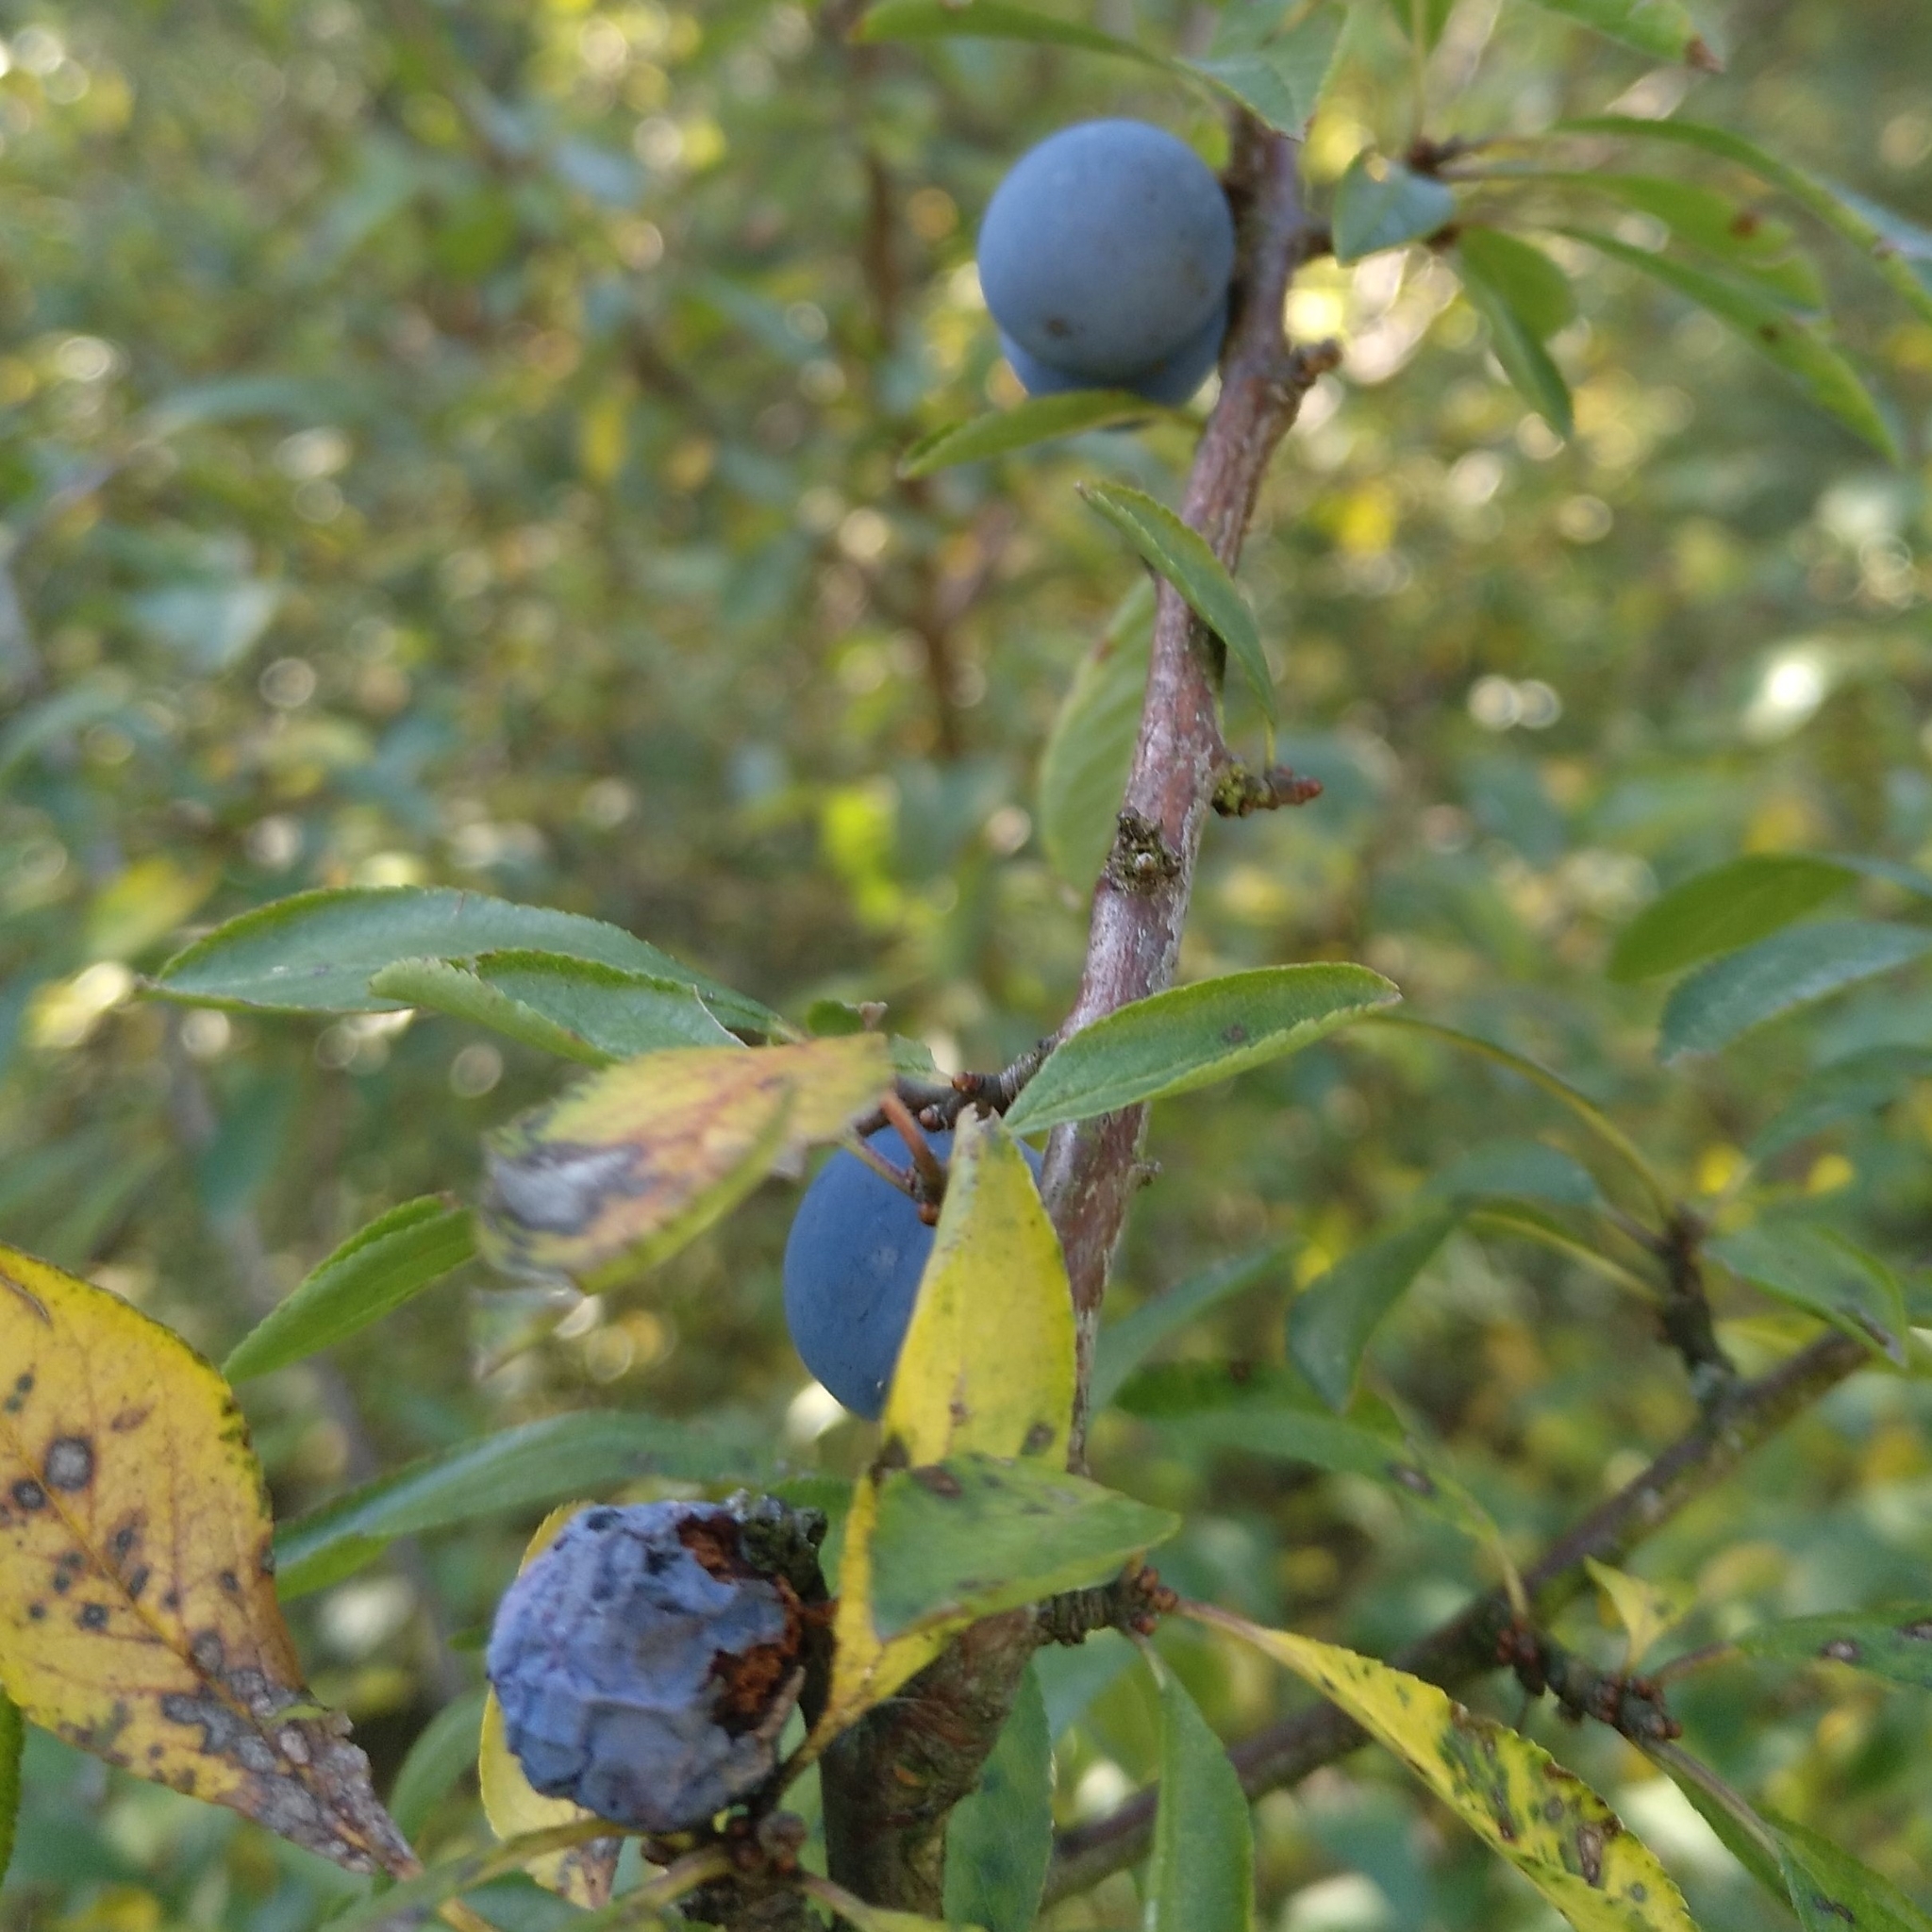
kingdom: Plantae
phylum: Tracheophyta
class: Magnoliopsida
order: Rosales
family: Rosaceae
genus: Prunus
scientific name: Prunus spinosa
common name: Blackthorn
